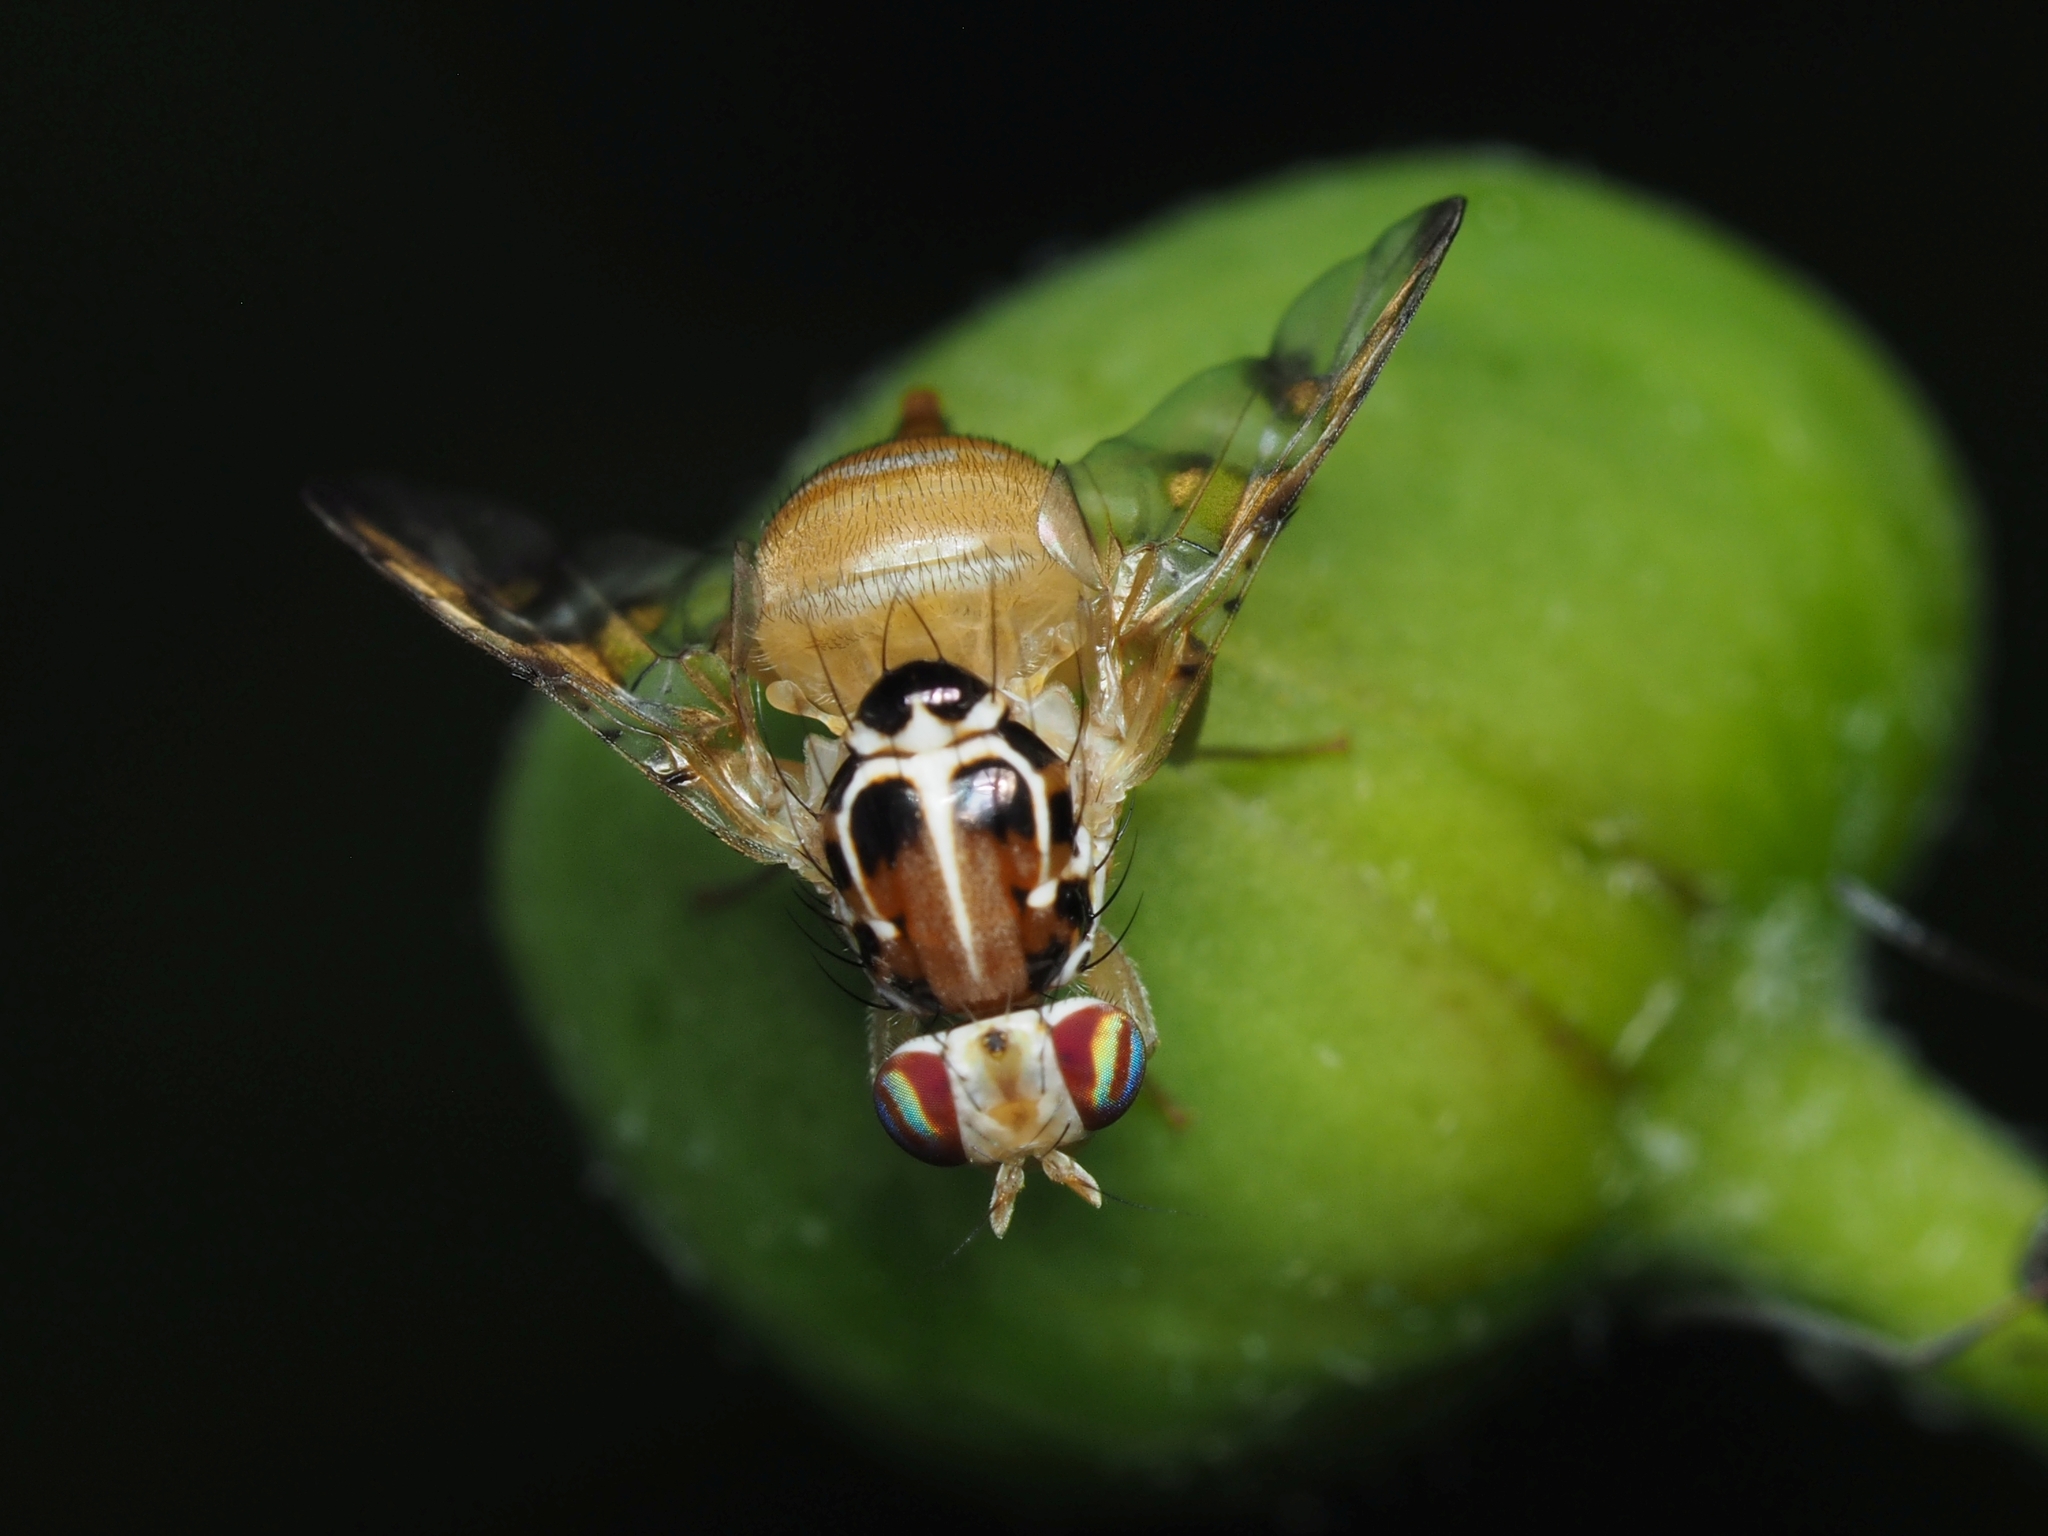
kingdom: Animalia
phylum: Arthropoda
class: Insecta
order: Diptera
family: Tephritidae
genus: Capparimyia
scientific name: Capparimyia savastani
